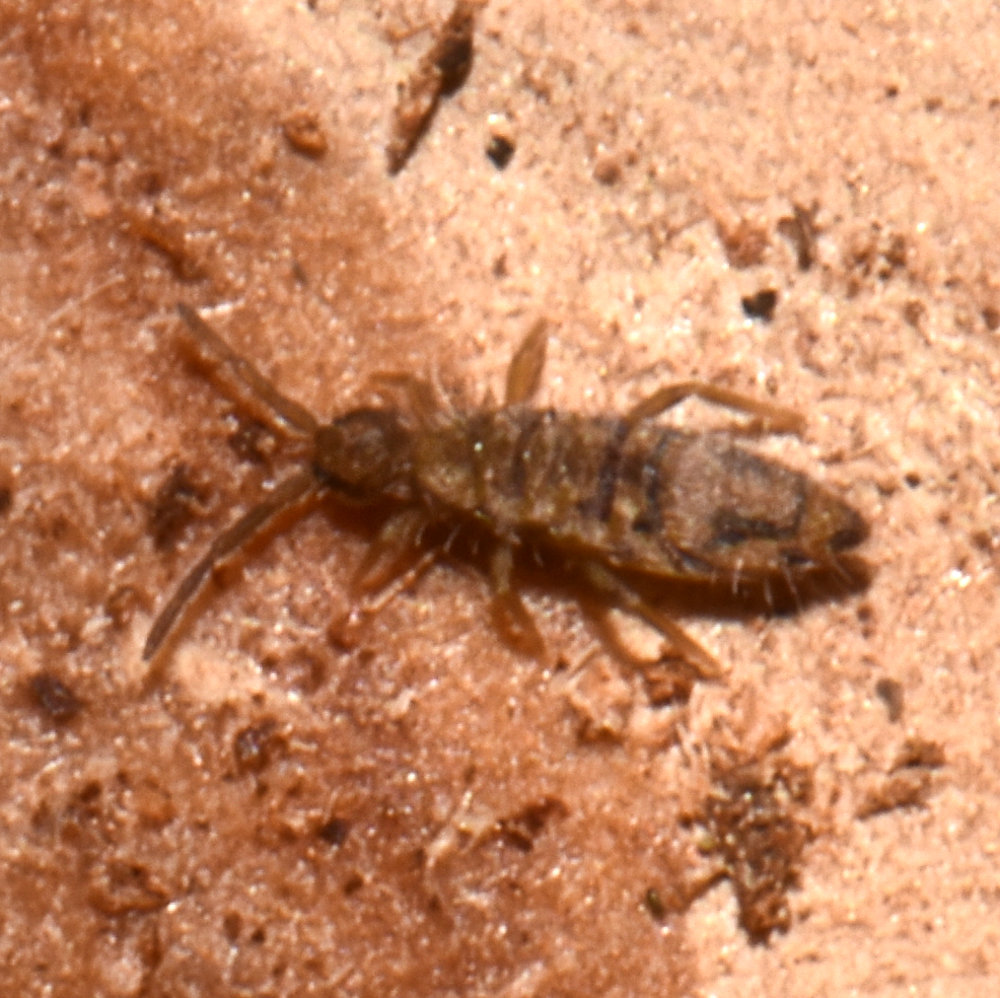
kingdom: Animalia
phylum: Arthropoda
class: Collembola
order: Entomobryomorpha
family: Entomobryidae
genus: Entomobrya
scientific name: Entomobrya nivalis
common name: Cosmopolitan springtail
